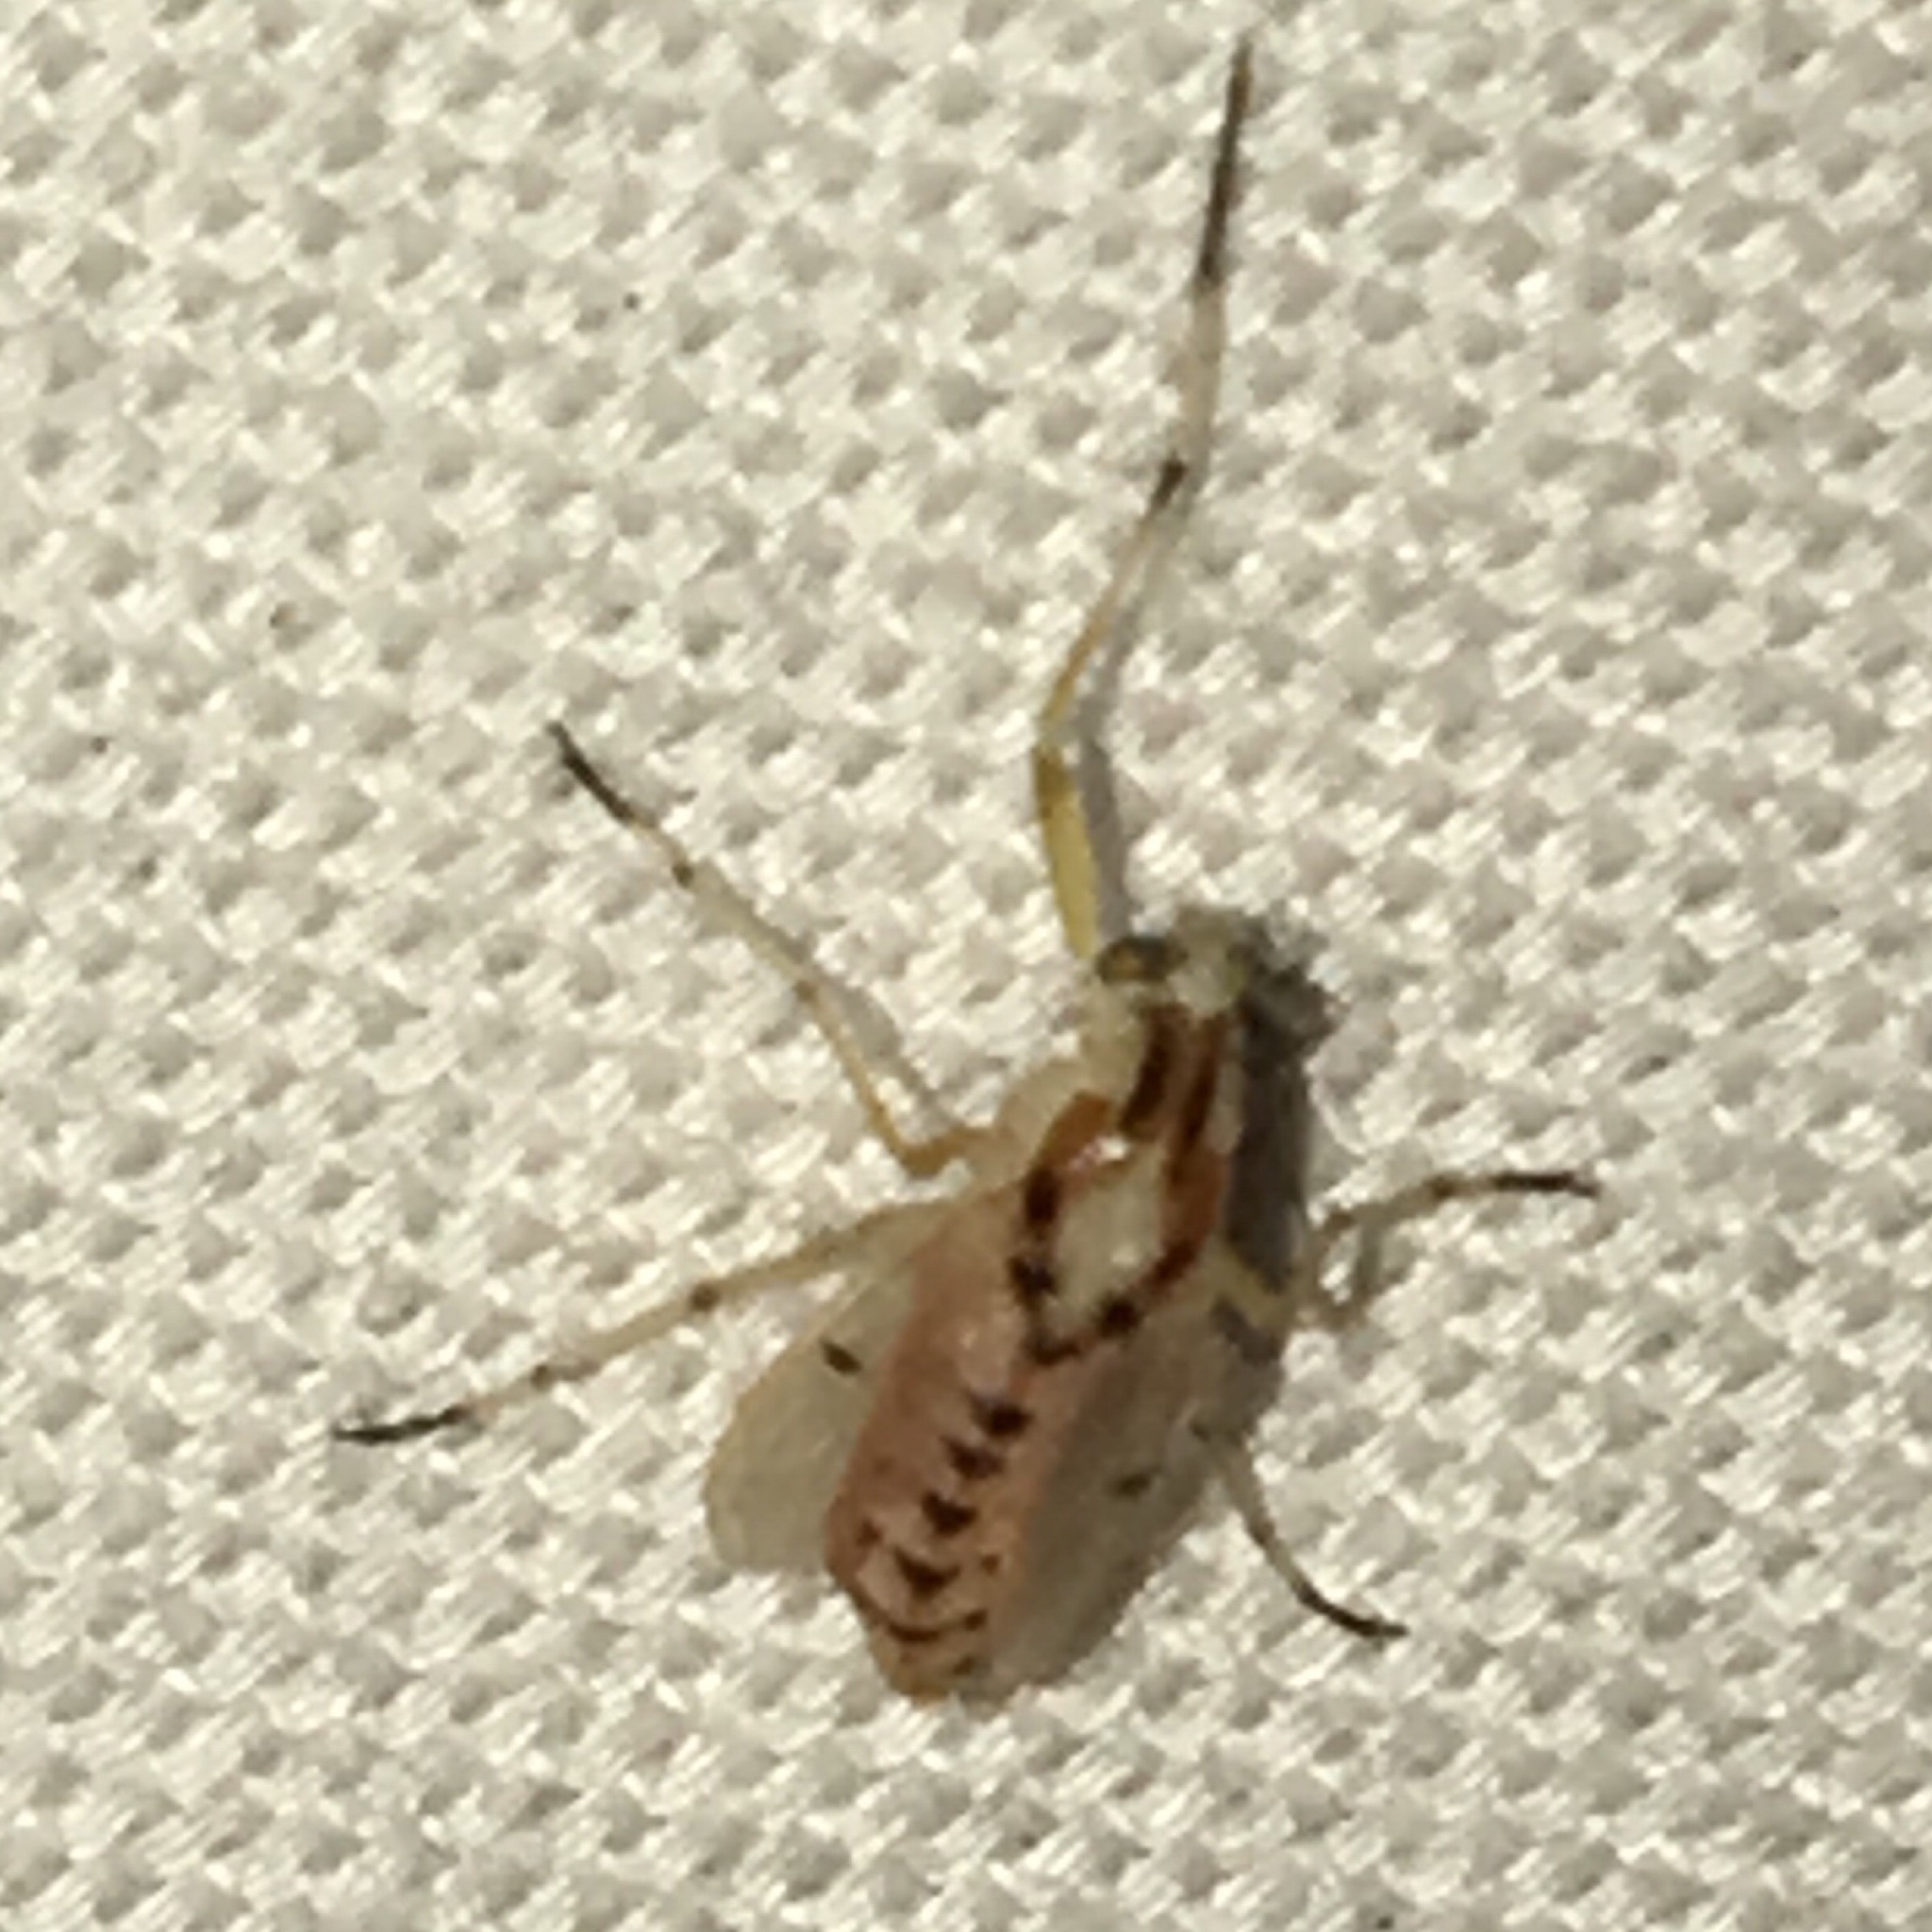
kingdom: Animalia
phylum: Arthropoda
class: Insecta
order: Diptera
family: Chironomidae
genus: Coelotanypus
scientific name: Coelotanypus concinnus
